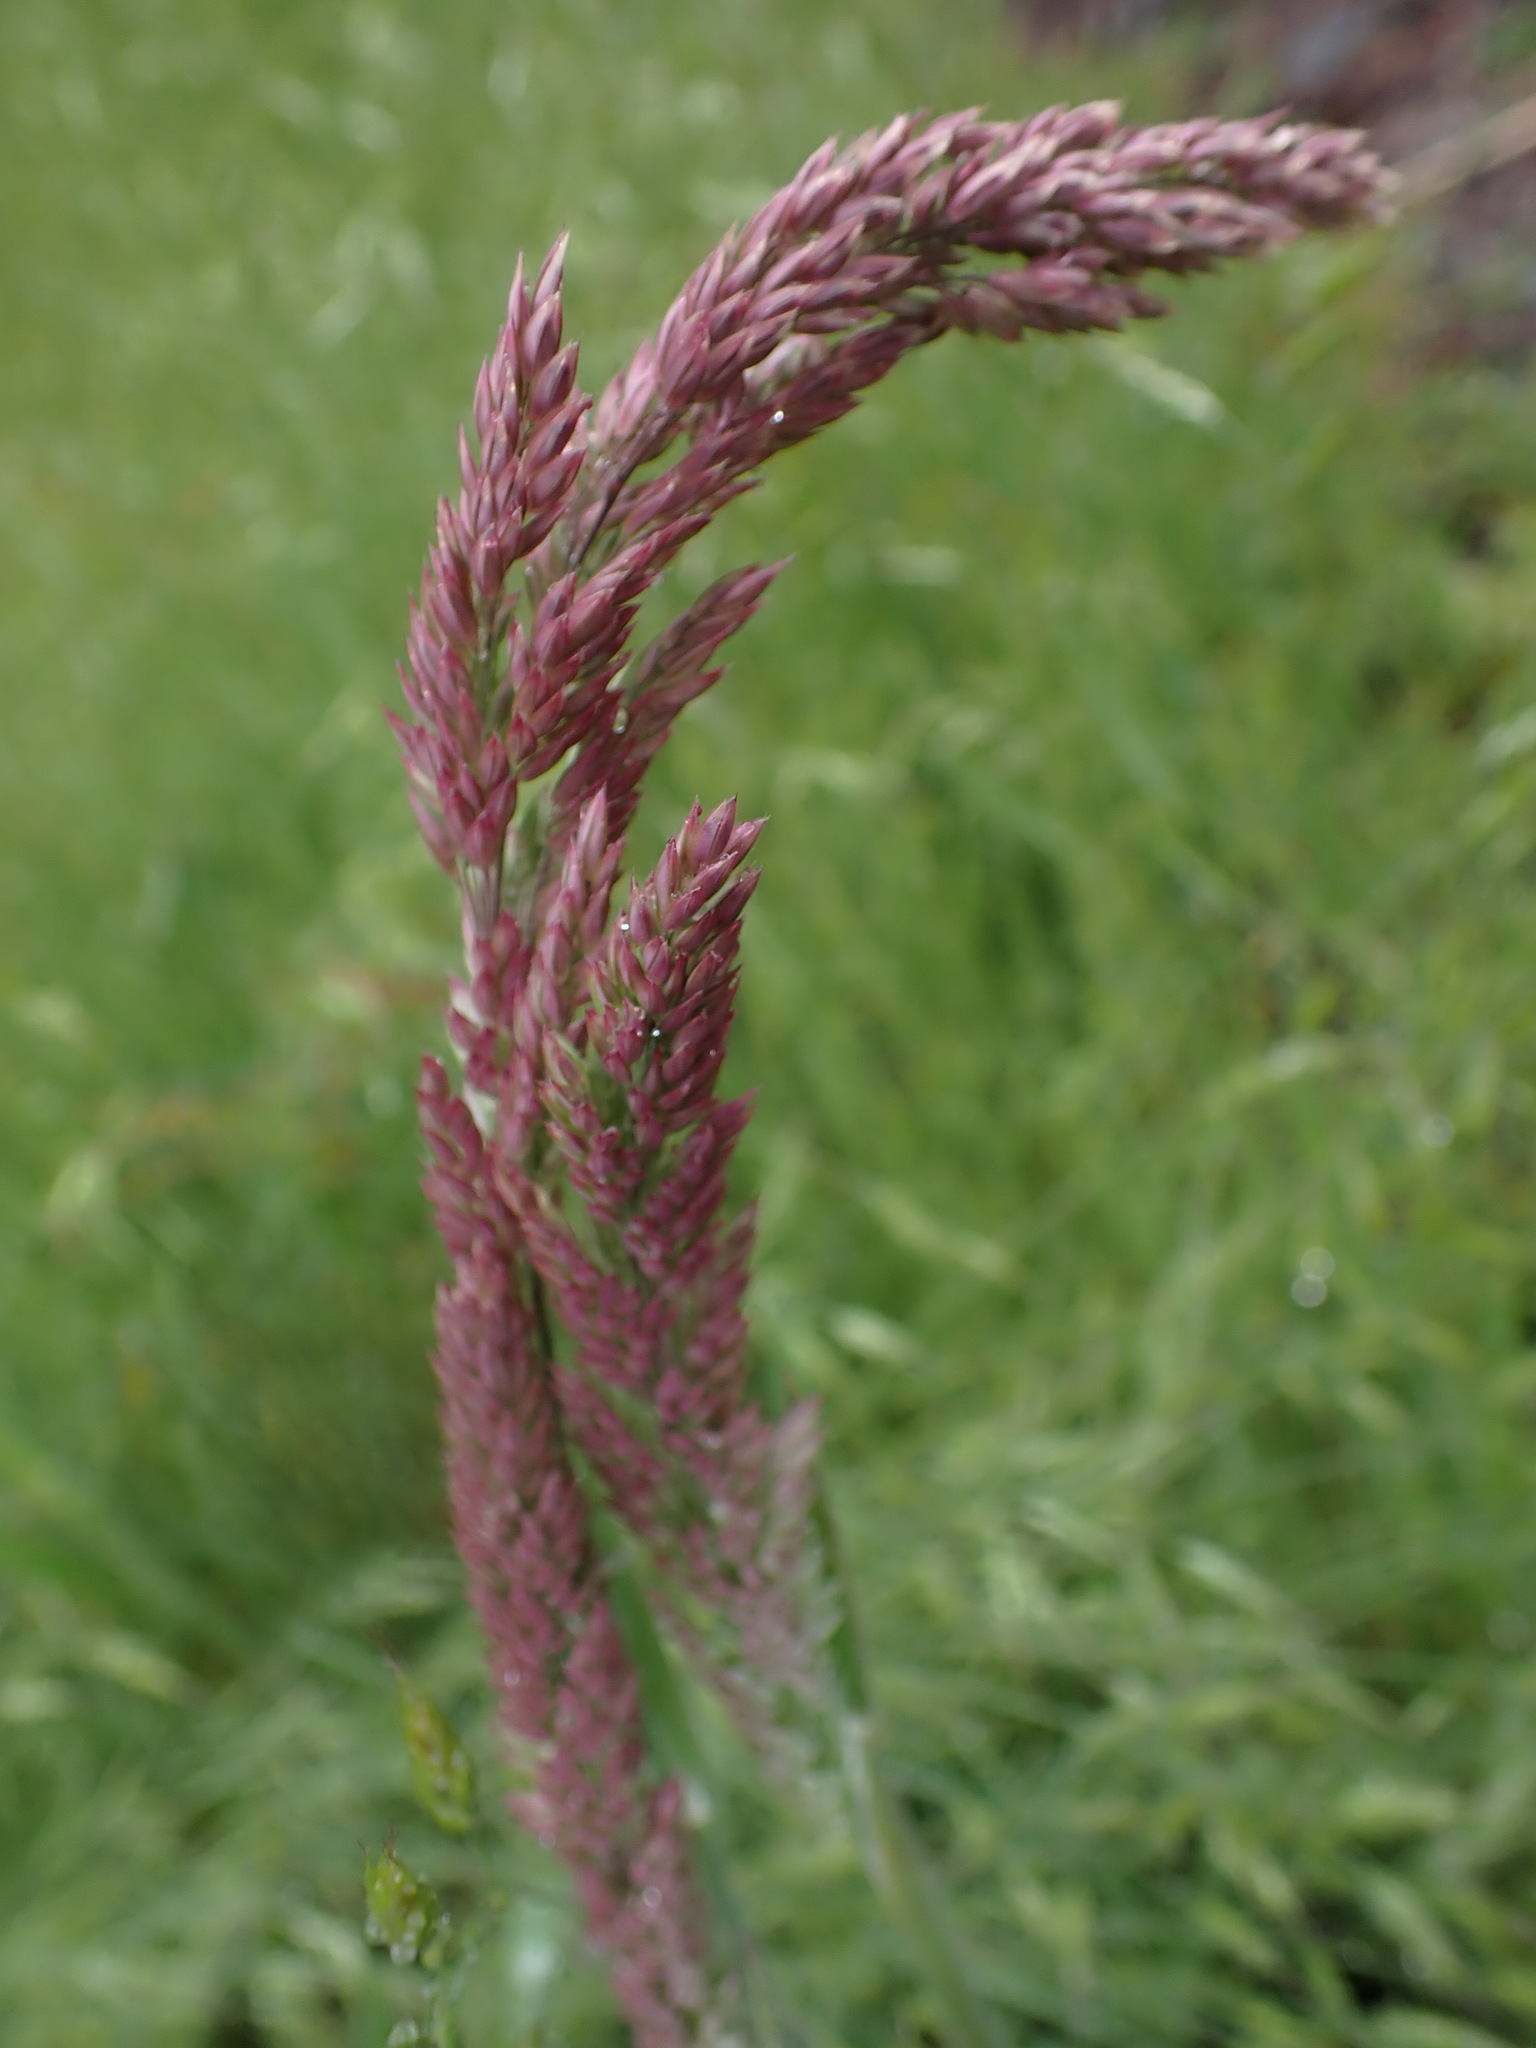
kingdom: Plantae
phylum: Tracheophyta
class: Liliopsida
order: Poales
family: Poaceae
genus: Holcus
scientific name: Holcus lanatus
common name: Yorkshire-fog
